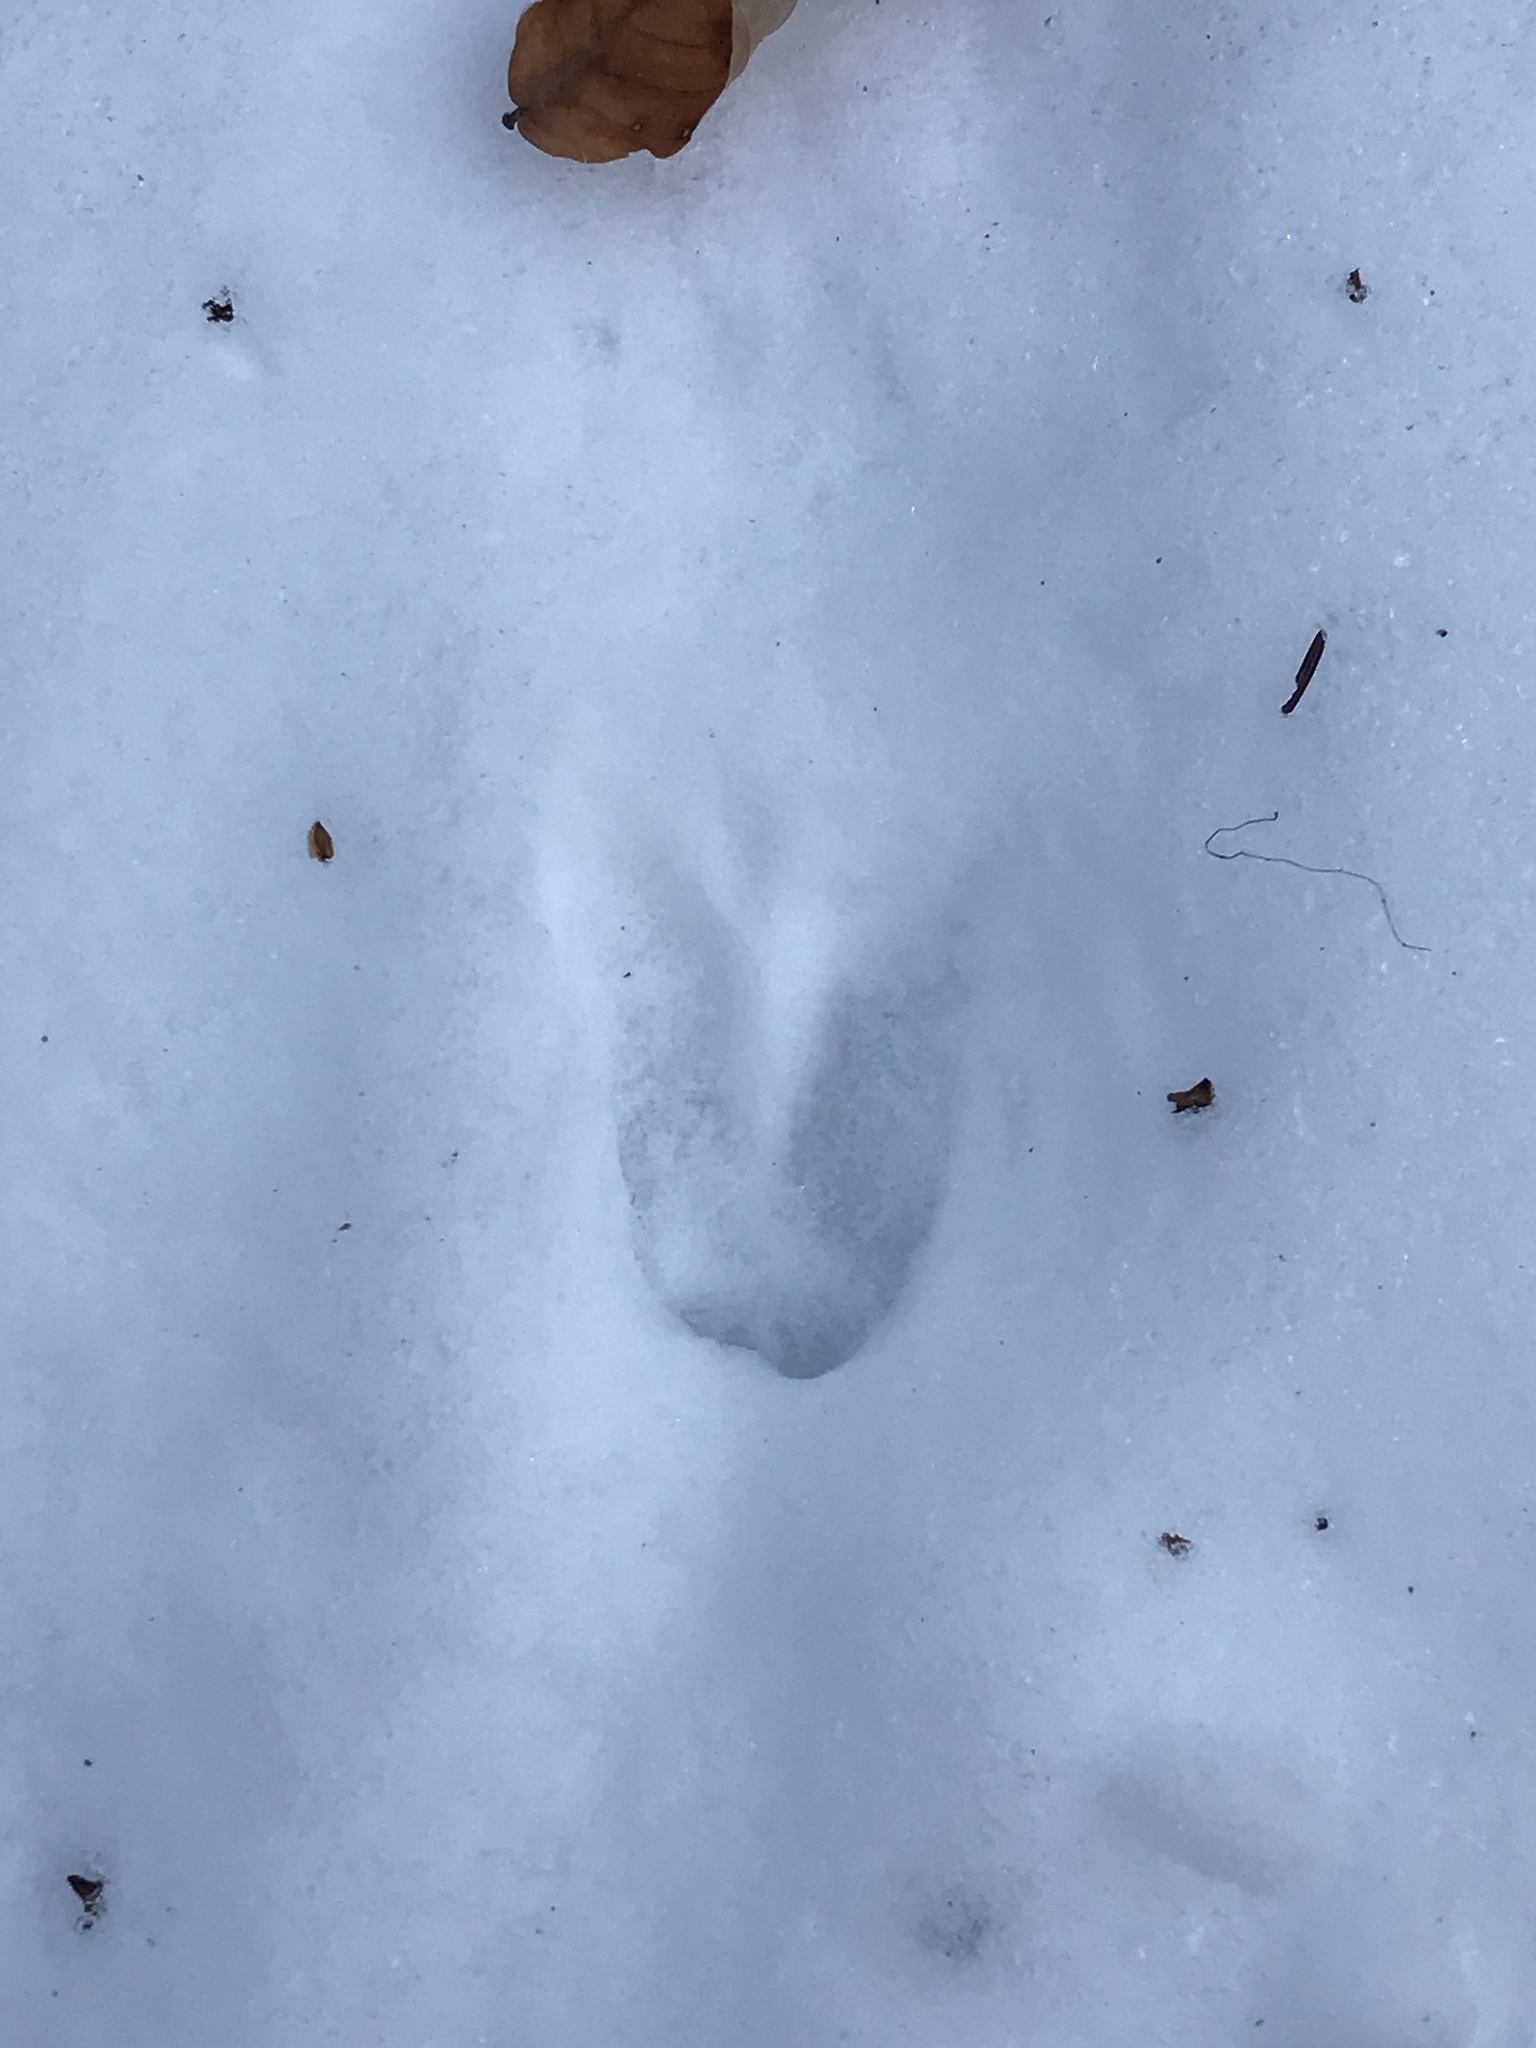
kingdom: Animalia
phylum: Chordata
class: Mammalia
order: Artiodactyla
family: Cervidae
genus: Odocoileus
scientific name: Odocoileus virginianus
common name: White-tailed deer
